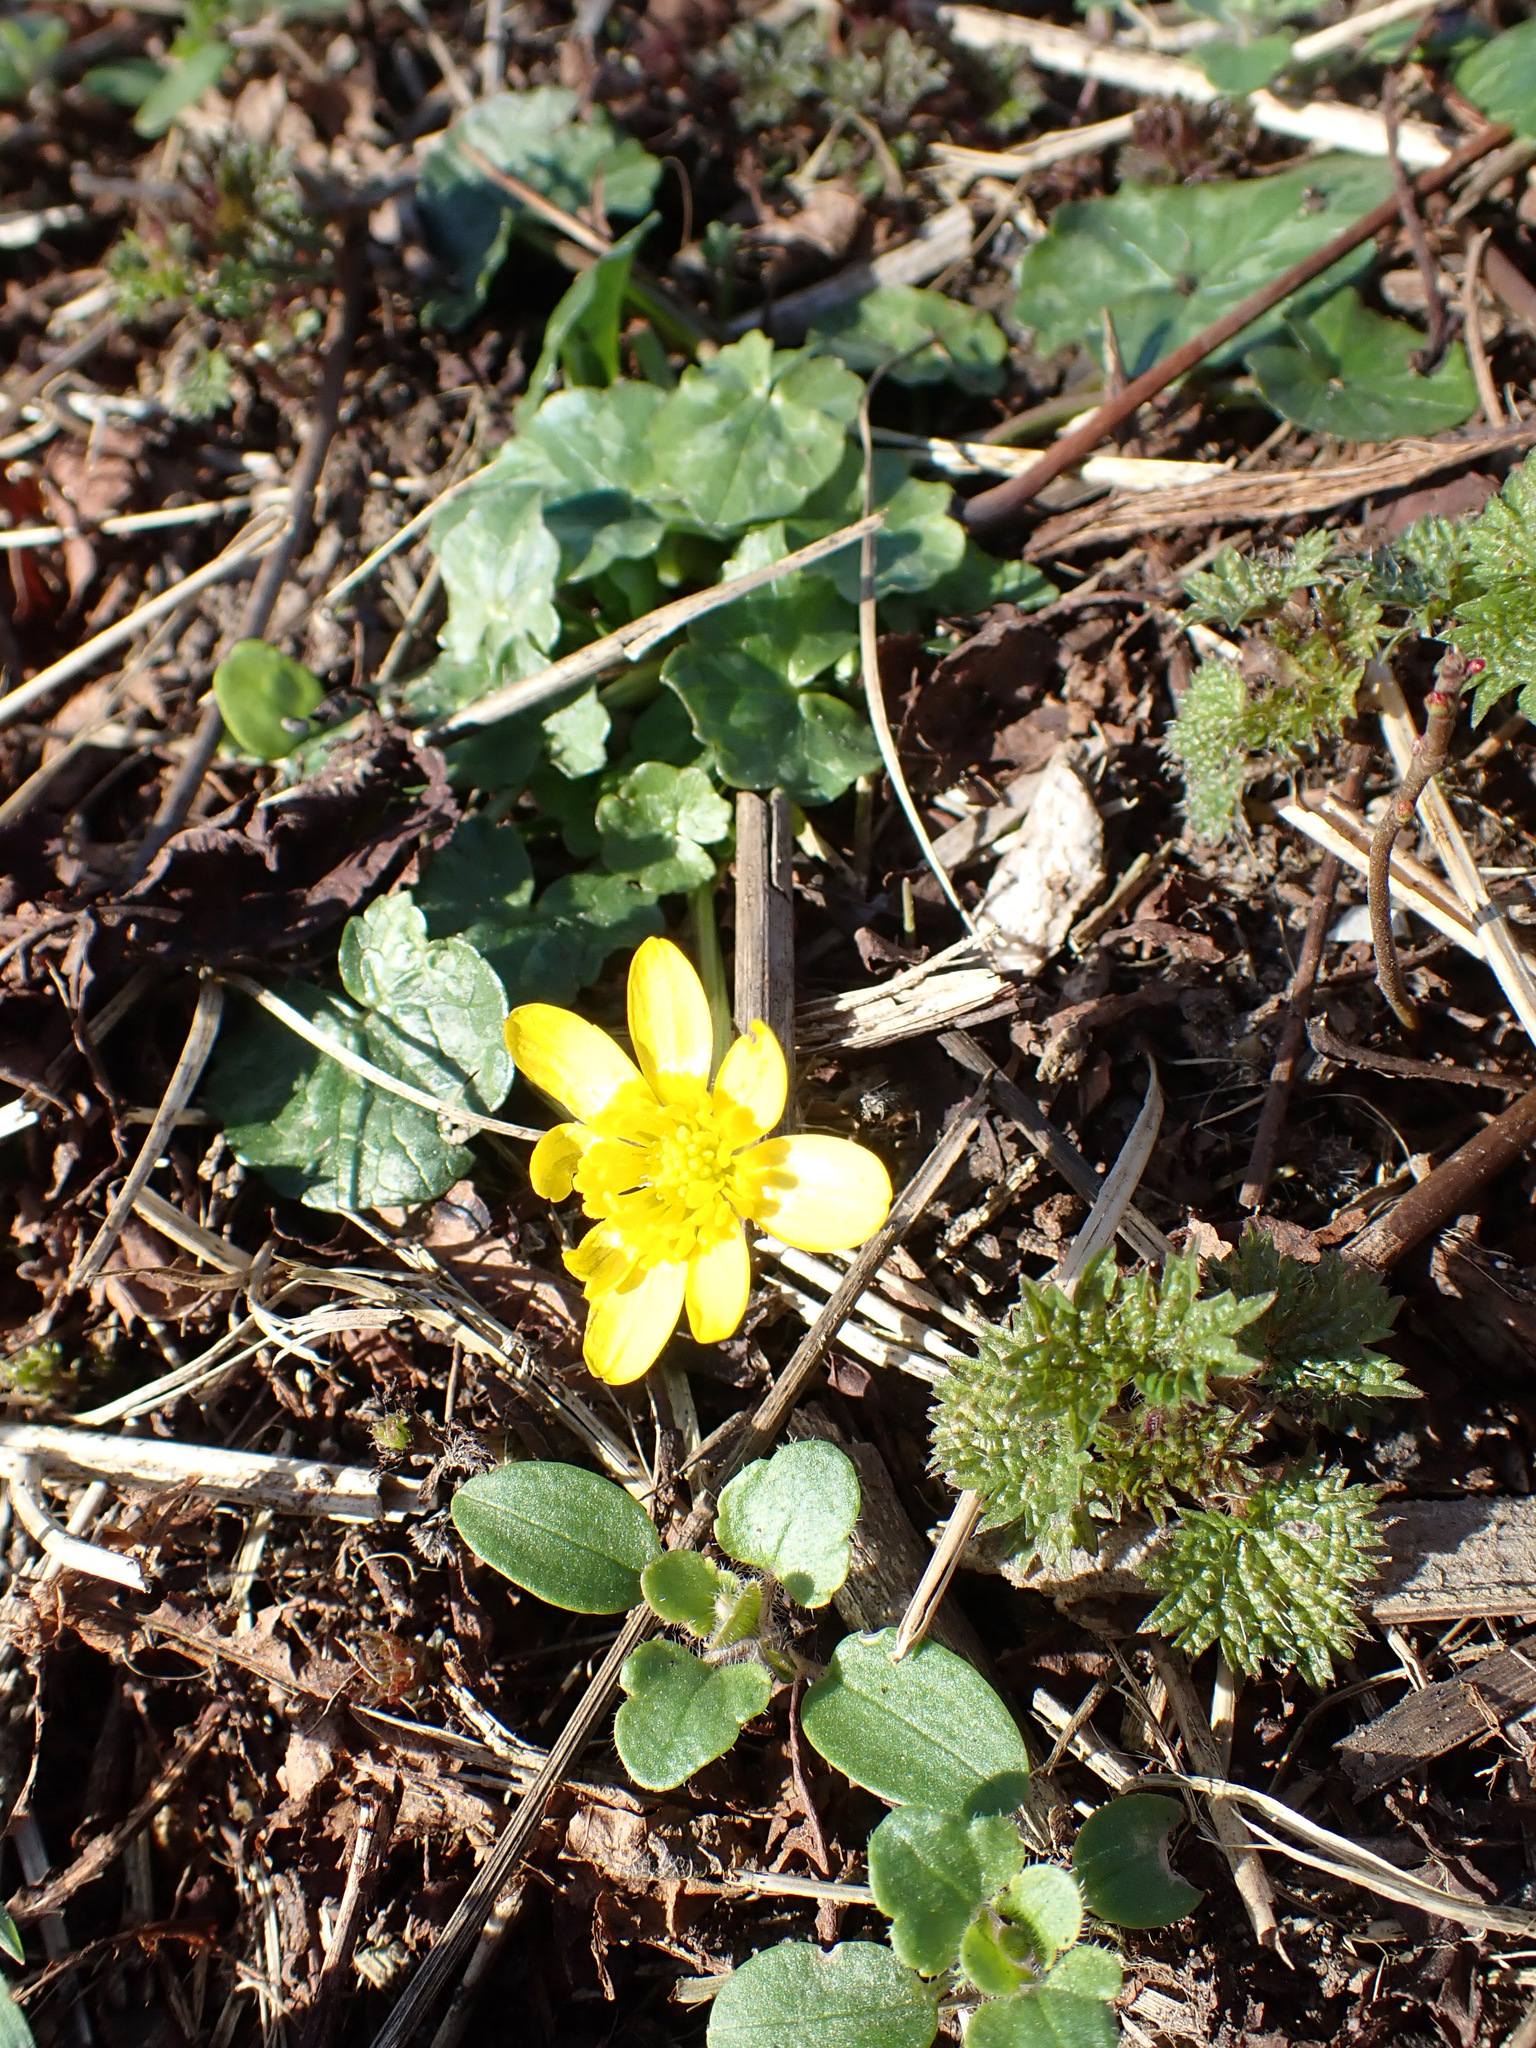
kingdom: Plantae
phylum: Tracheophyta
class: Magnoliopsida
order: Ranunculales
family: Ranunculaceae
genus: Ficaria
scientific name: Ficaria verna
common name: Lesser celandine
